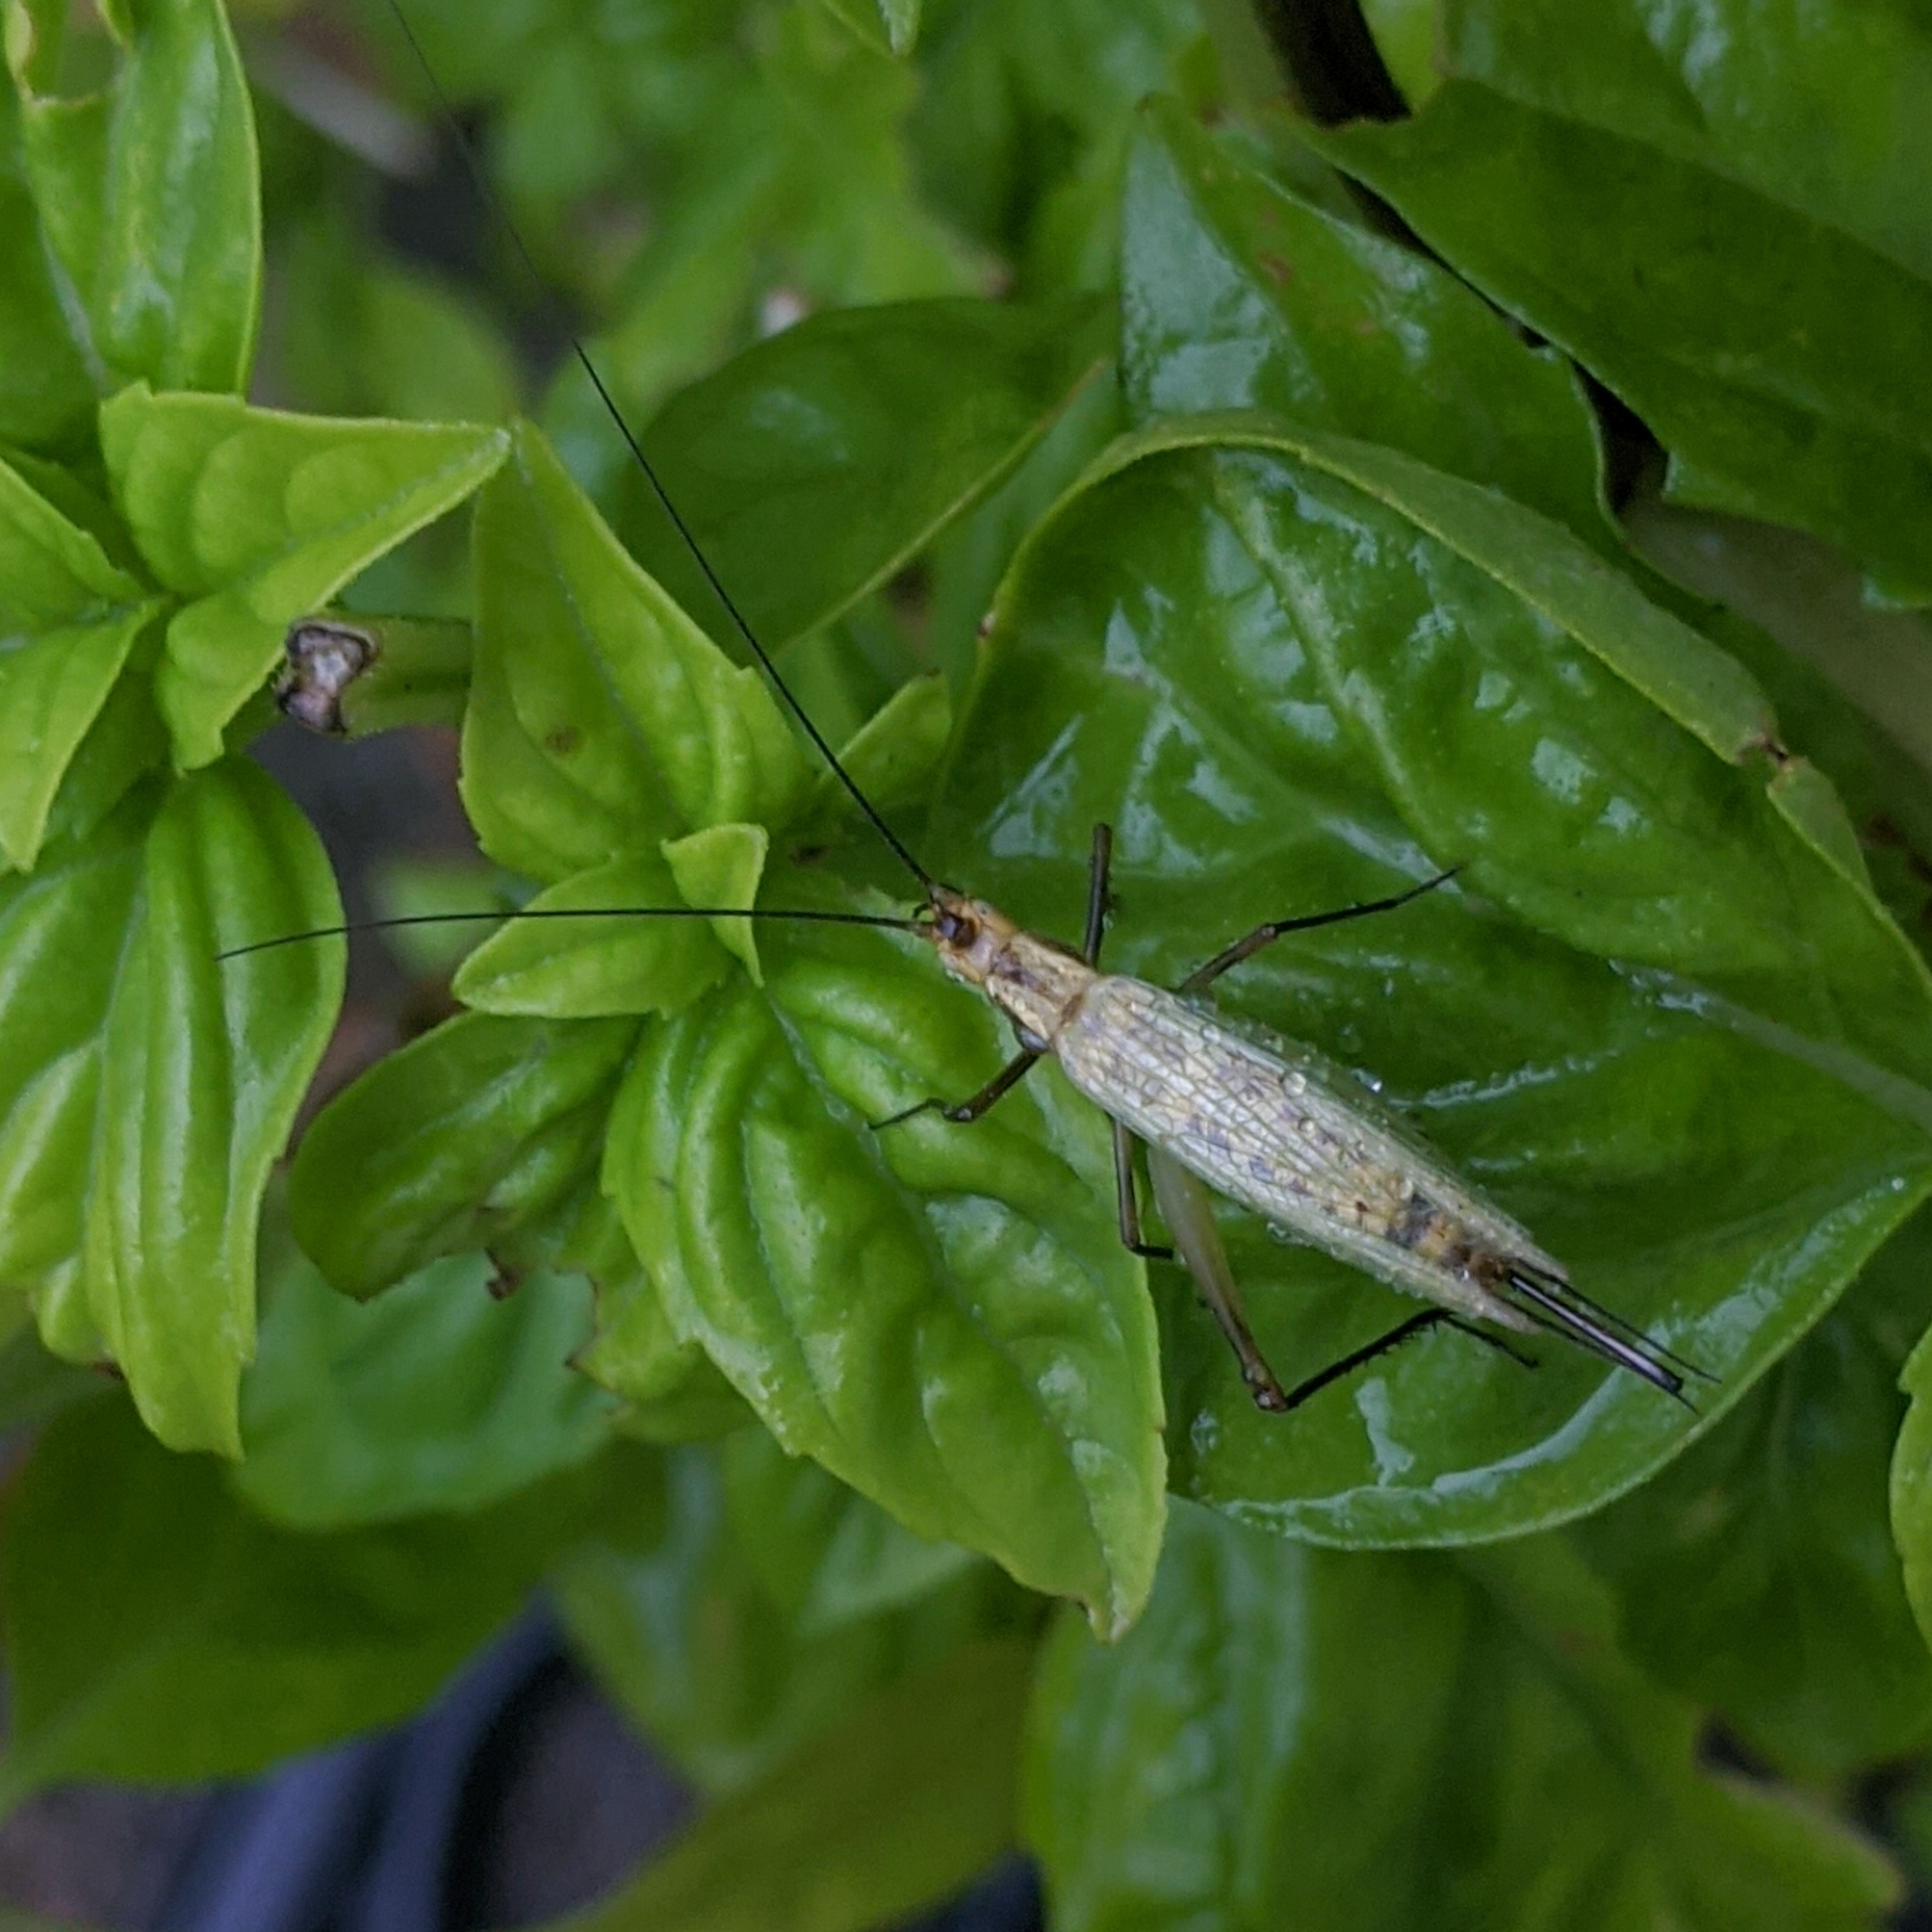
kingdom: Animalia
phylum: Arthropoda
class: Insecta
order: Orthoptera
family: Gryllidae
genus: Oecanthus
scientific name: Oecanthus nigricornis
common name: Black-horned tree cricket
